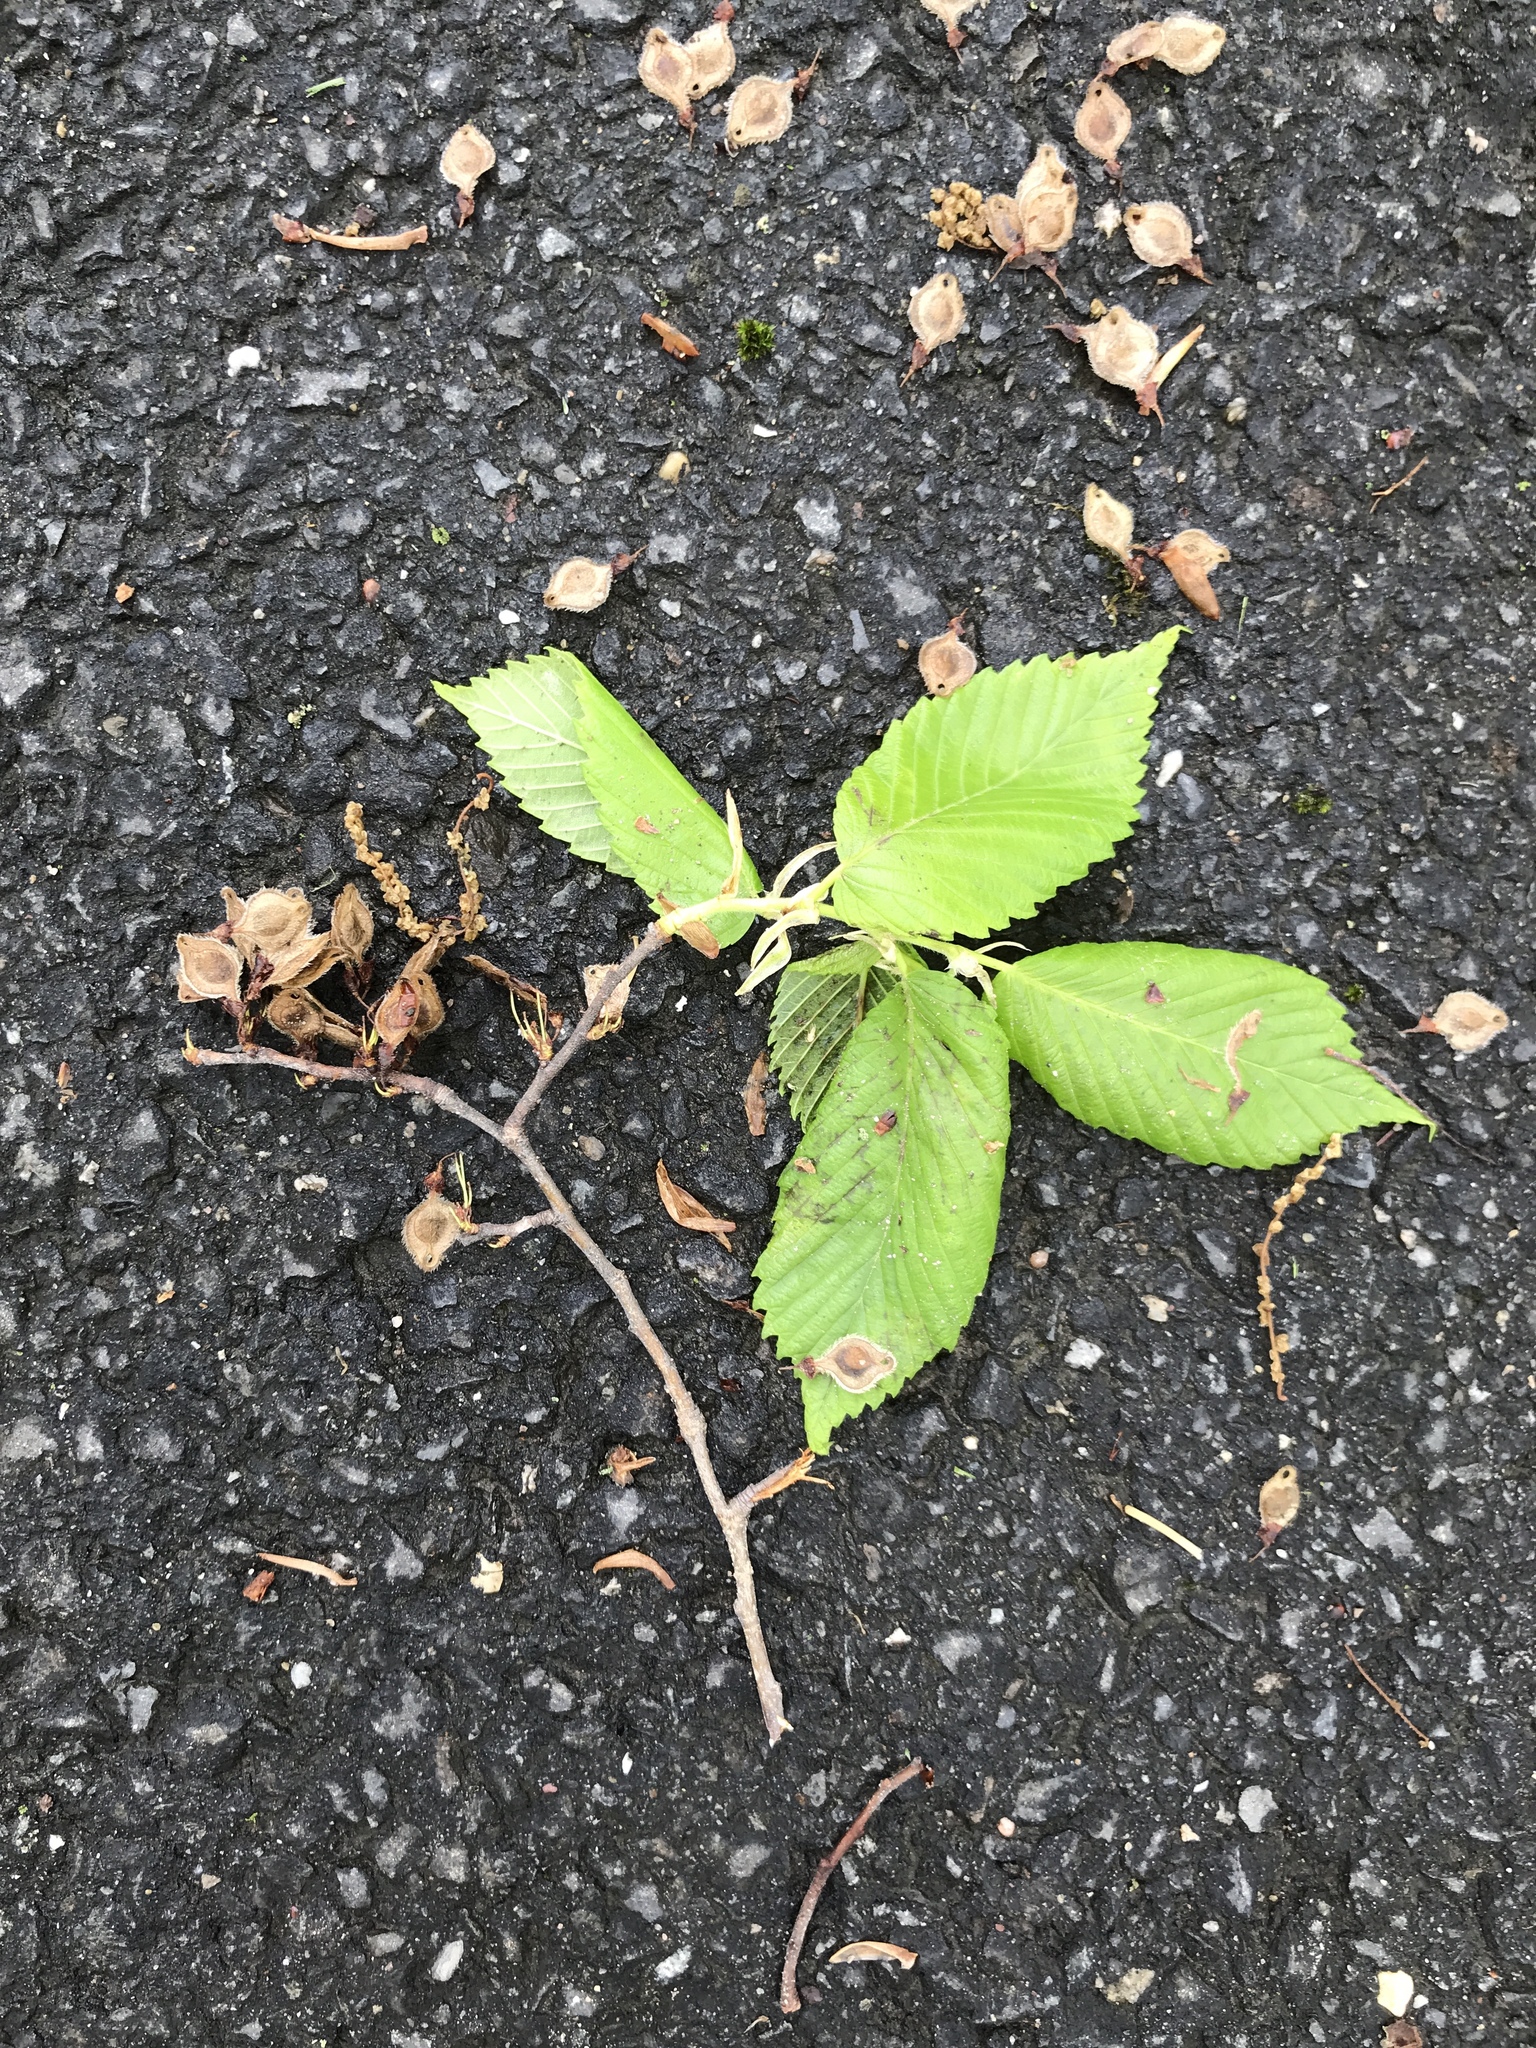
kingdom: Plantae
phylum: Tracheophyta
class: Magnoliopsida
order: Rosales
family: Ulmaceae
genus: Ulmus
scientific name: Ulmus americana
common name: American elm
